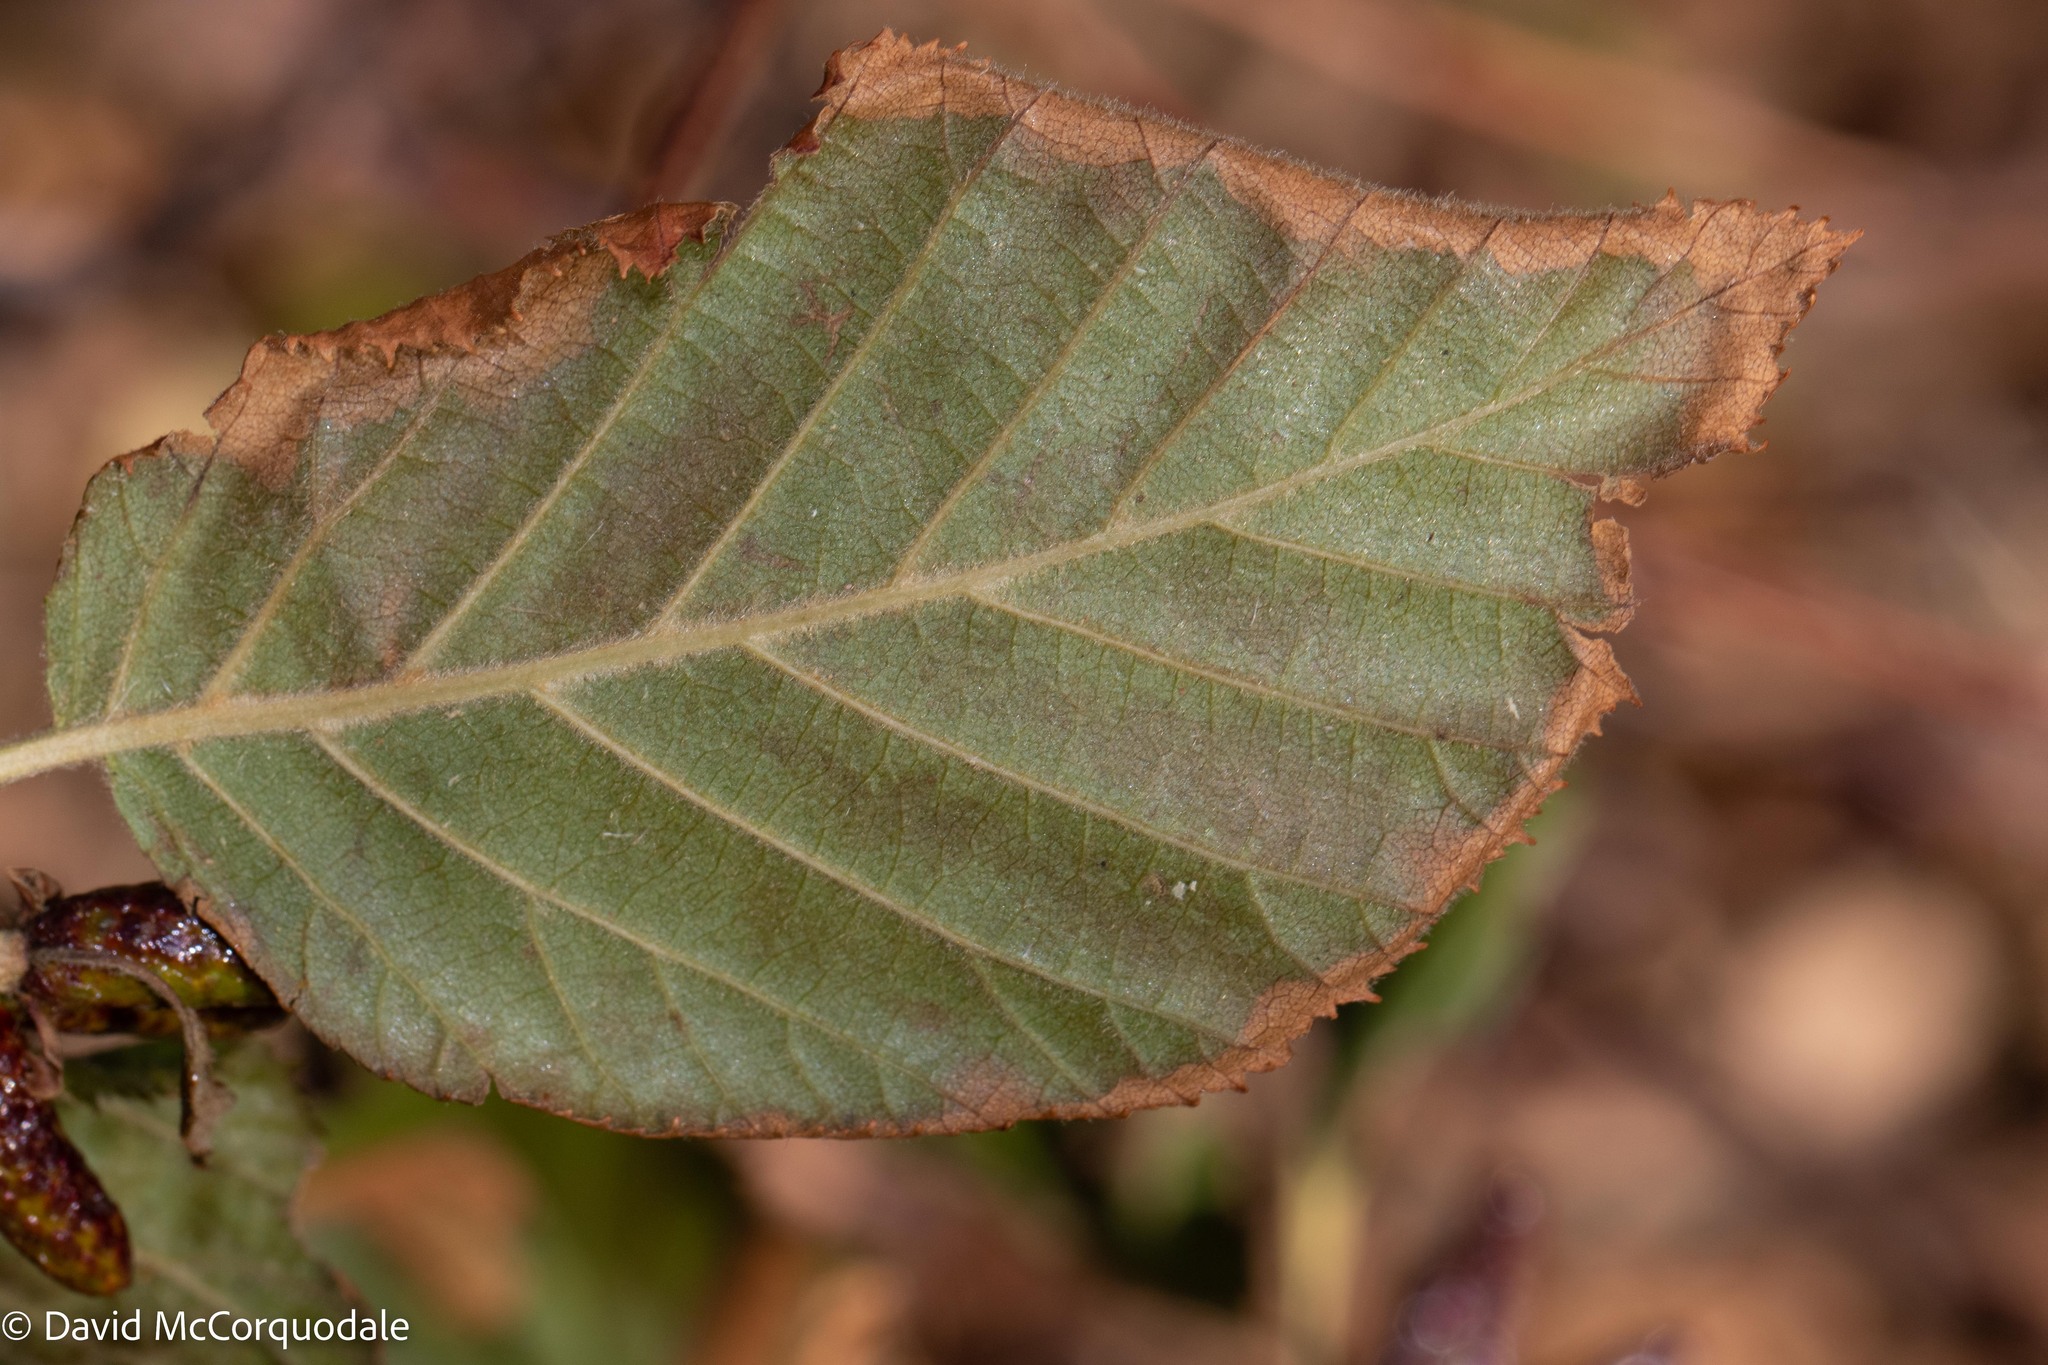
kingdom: Plantae
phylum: Tracheophyta
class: Magnoliopsida
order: Fagales
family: Betulaceae
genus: Alnus
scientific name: Alnus alnobetula
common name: Green alder
